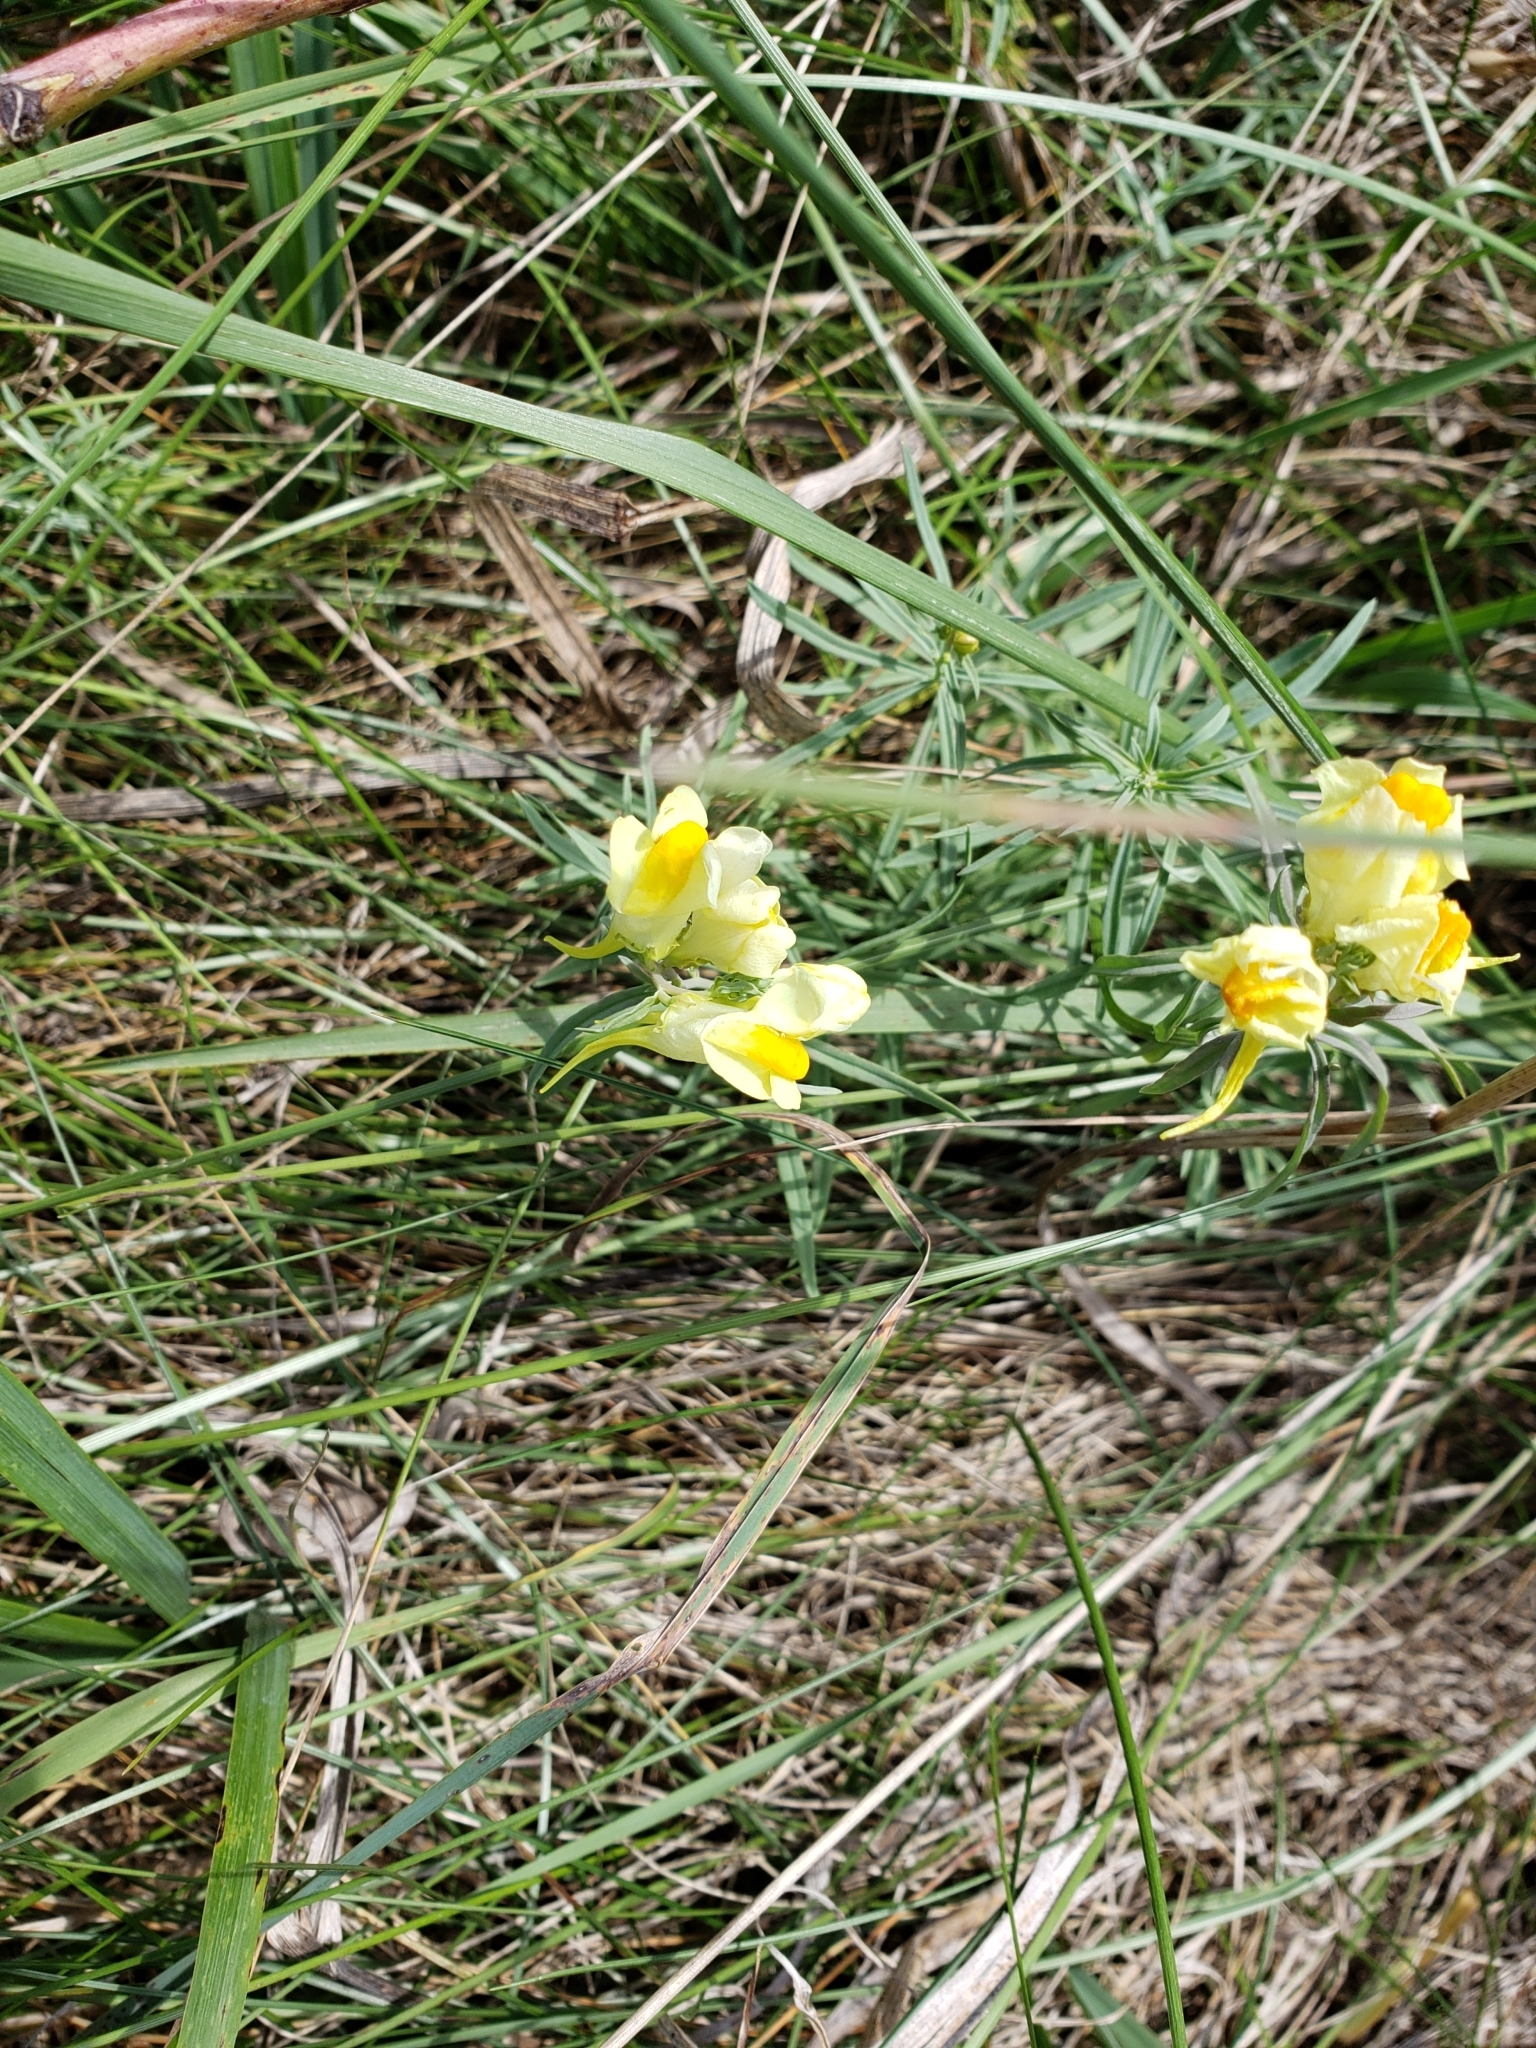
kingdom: Plantae
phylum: Tracheophyta
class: Magnoliopsida
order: Lamiales
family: Plantaginaceae
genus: Linaria
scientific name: Linaria vulgaris
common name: Butter and eggs
